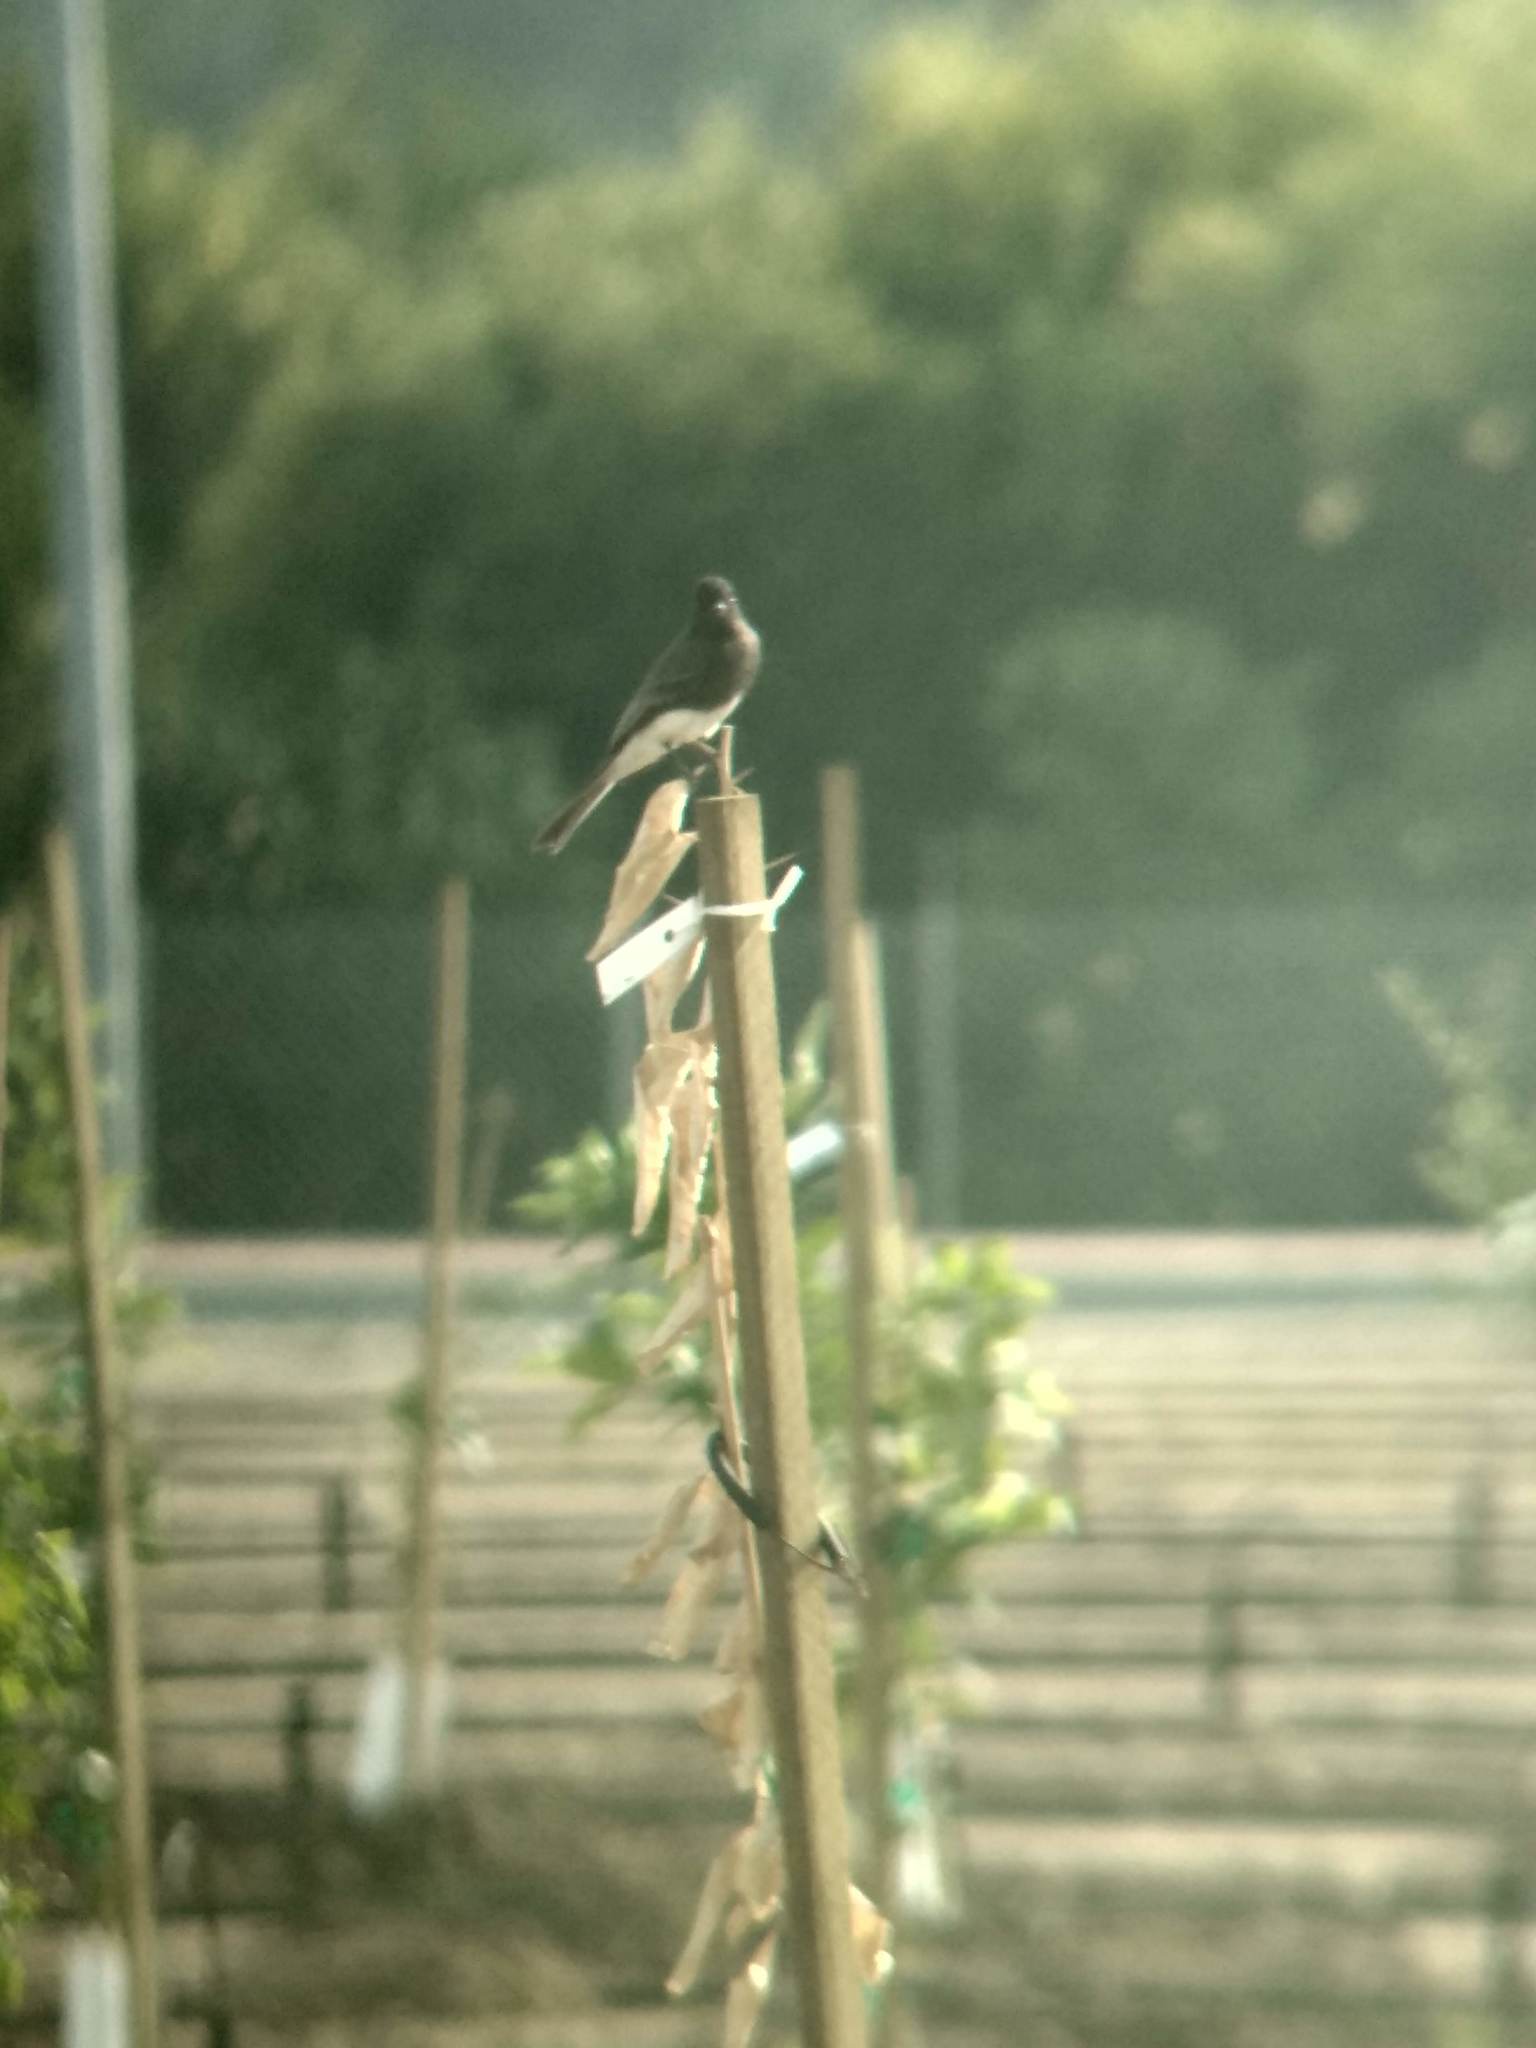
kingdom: Animalia
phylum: Chordata
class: Aves
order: Passeriformes
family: Tyrannidae
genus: Sayornis
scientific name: Sayornis nigricans
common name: Black phoebe
